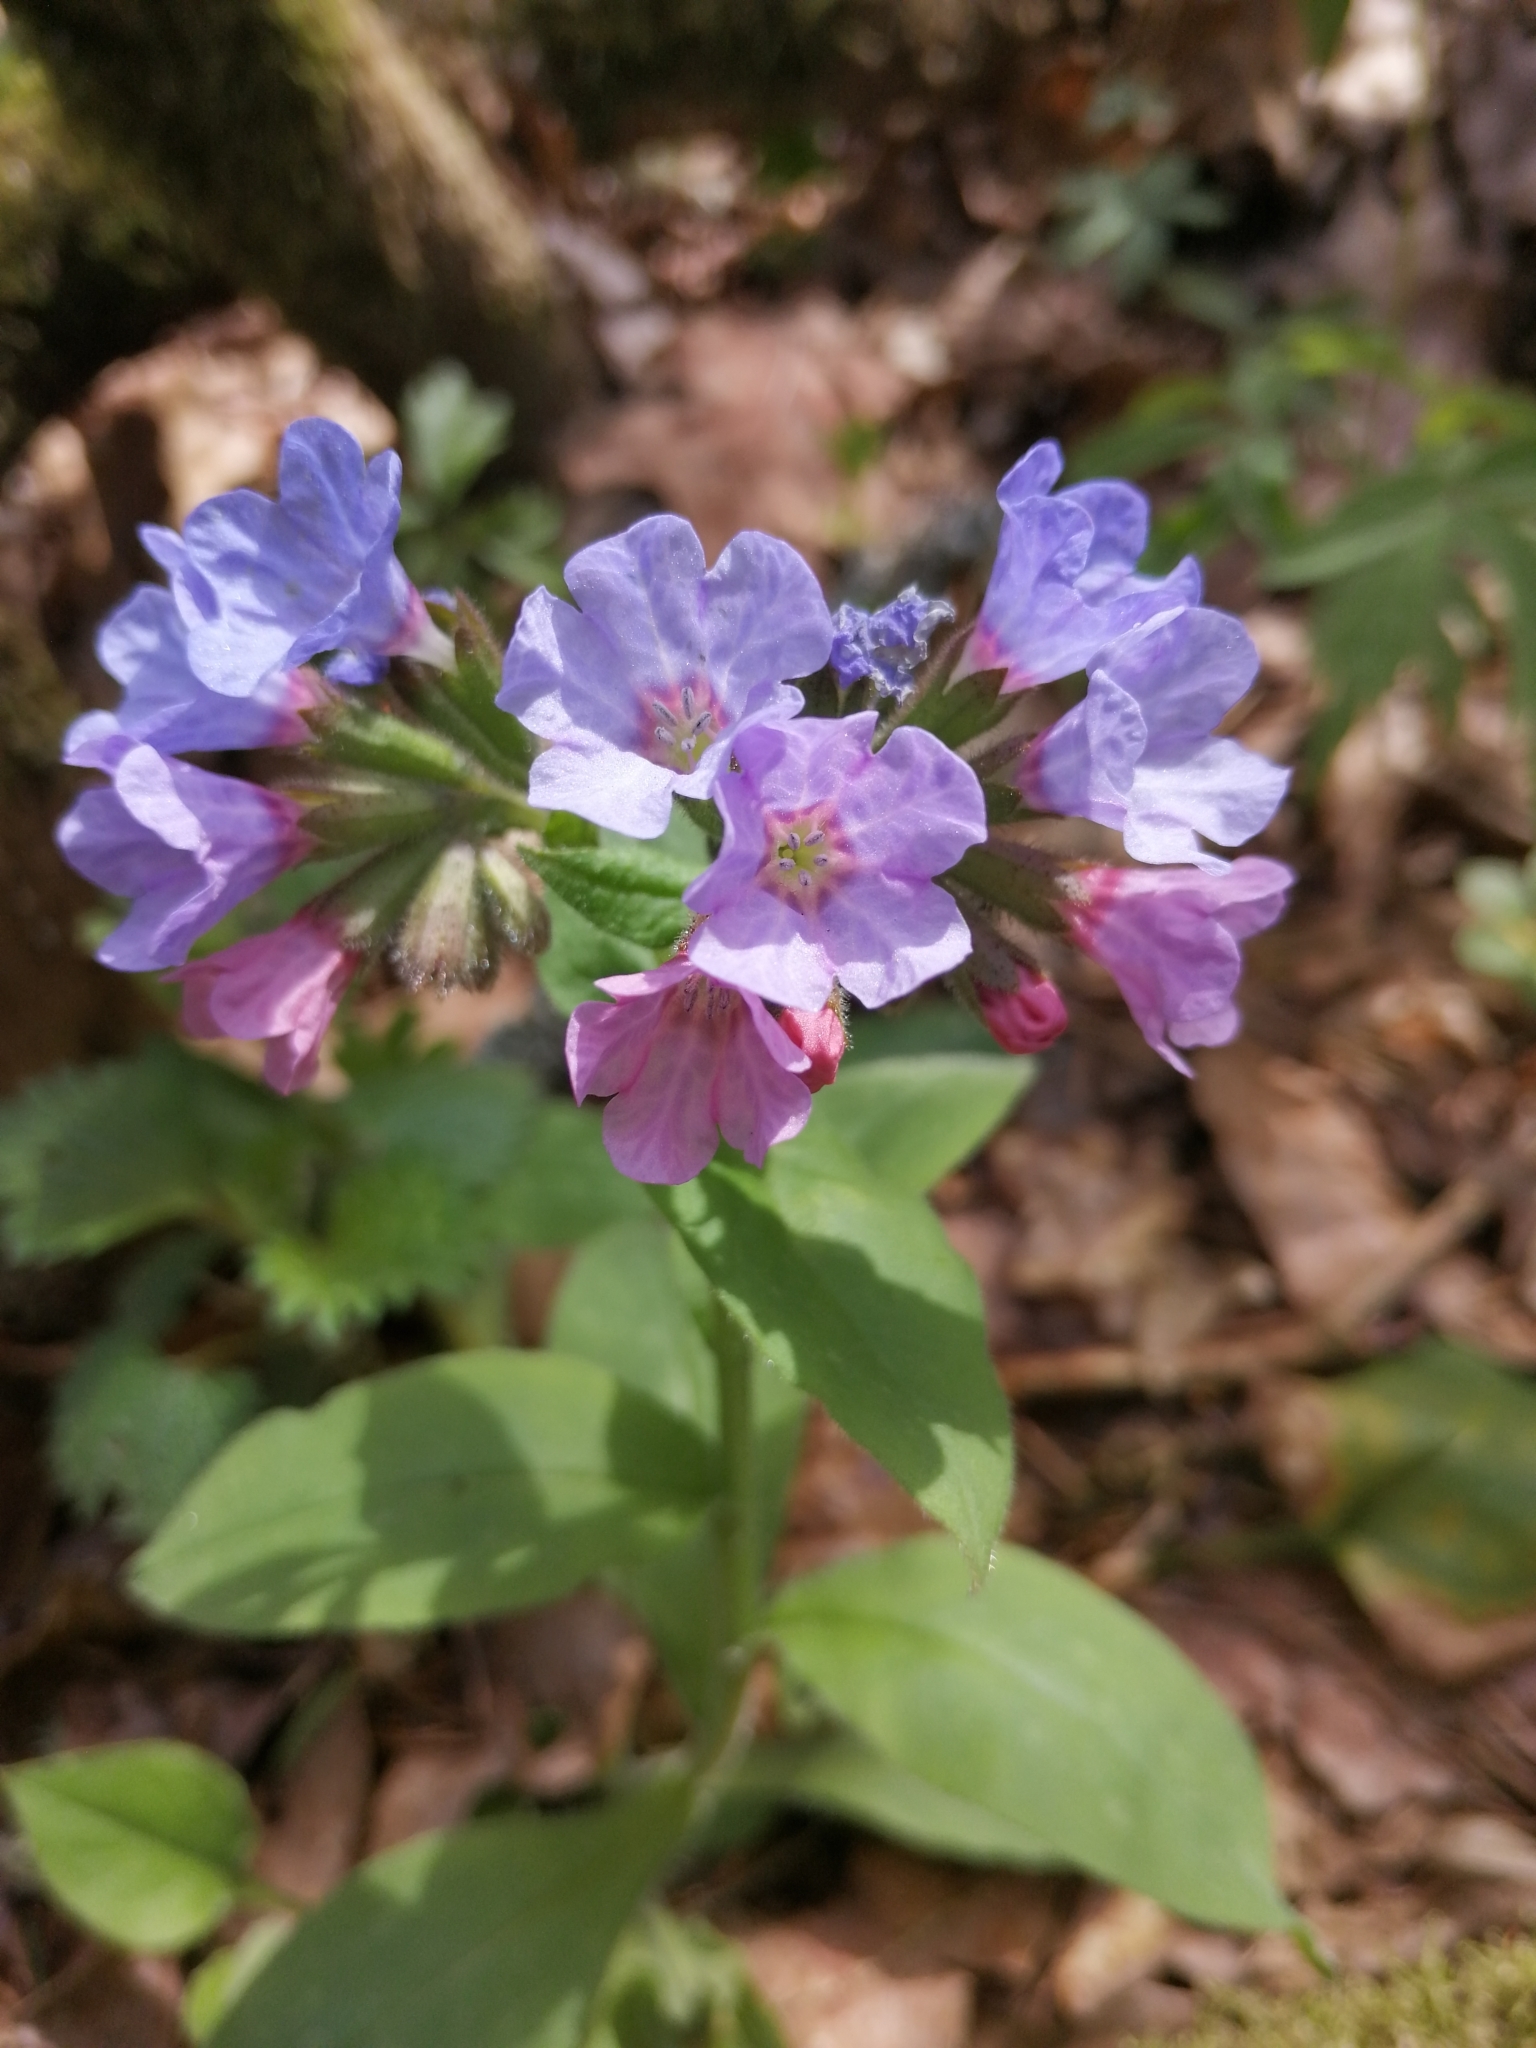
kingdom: Plantae
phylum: Tracheophyta
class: Magnoliopsida
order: Boraginales
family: Boraginaceae
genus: Pulmonaria
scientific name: Pulmonaria obscura
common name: Suffolk lungwort
